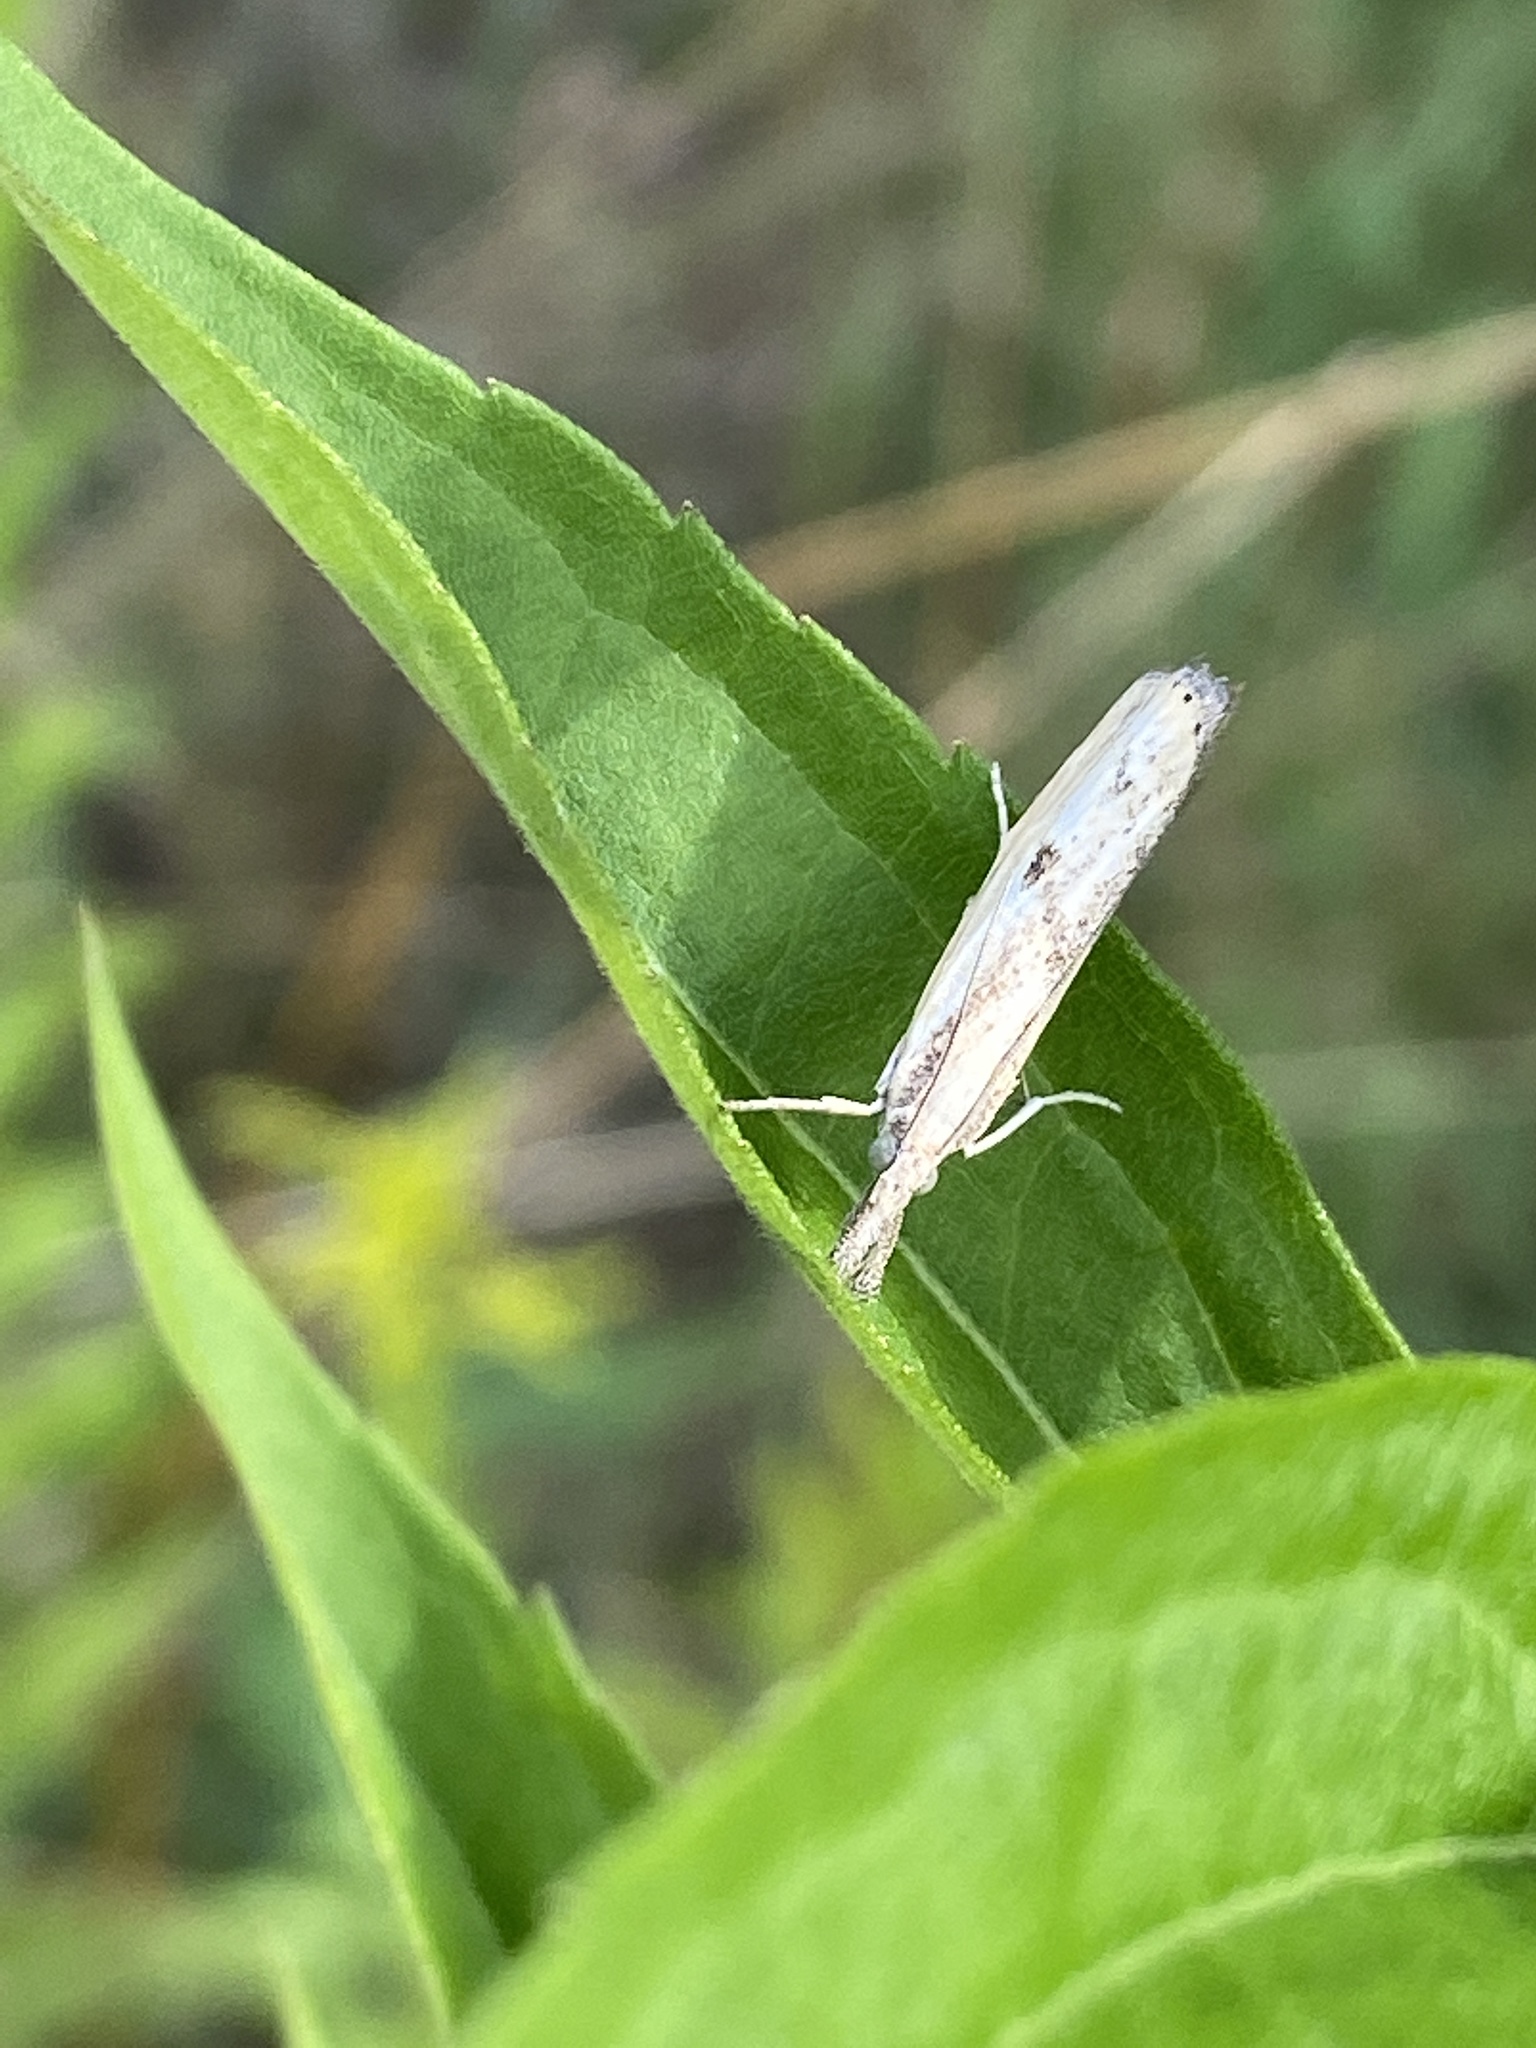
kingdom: Animalia
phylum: Arthropoda
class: Insecta
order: Lepidoptera
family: Crambidae
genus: Agriphila
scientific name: Agriphila inquinatella
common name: Barred grass-veneer
